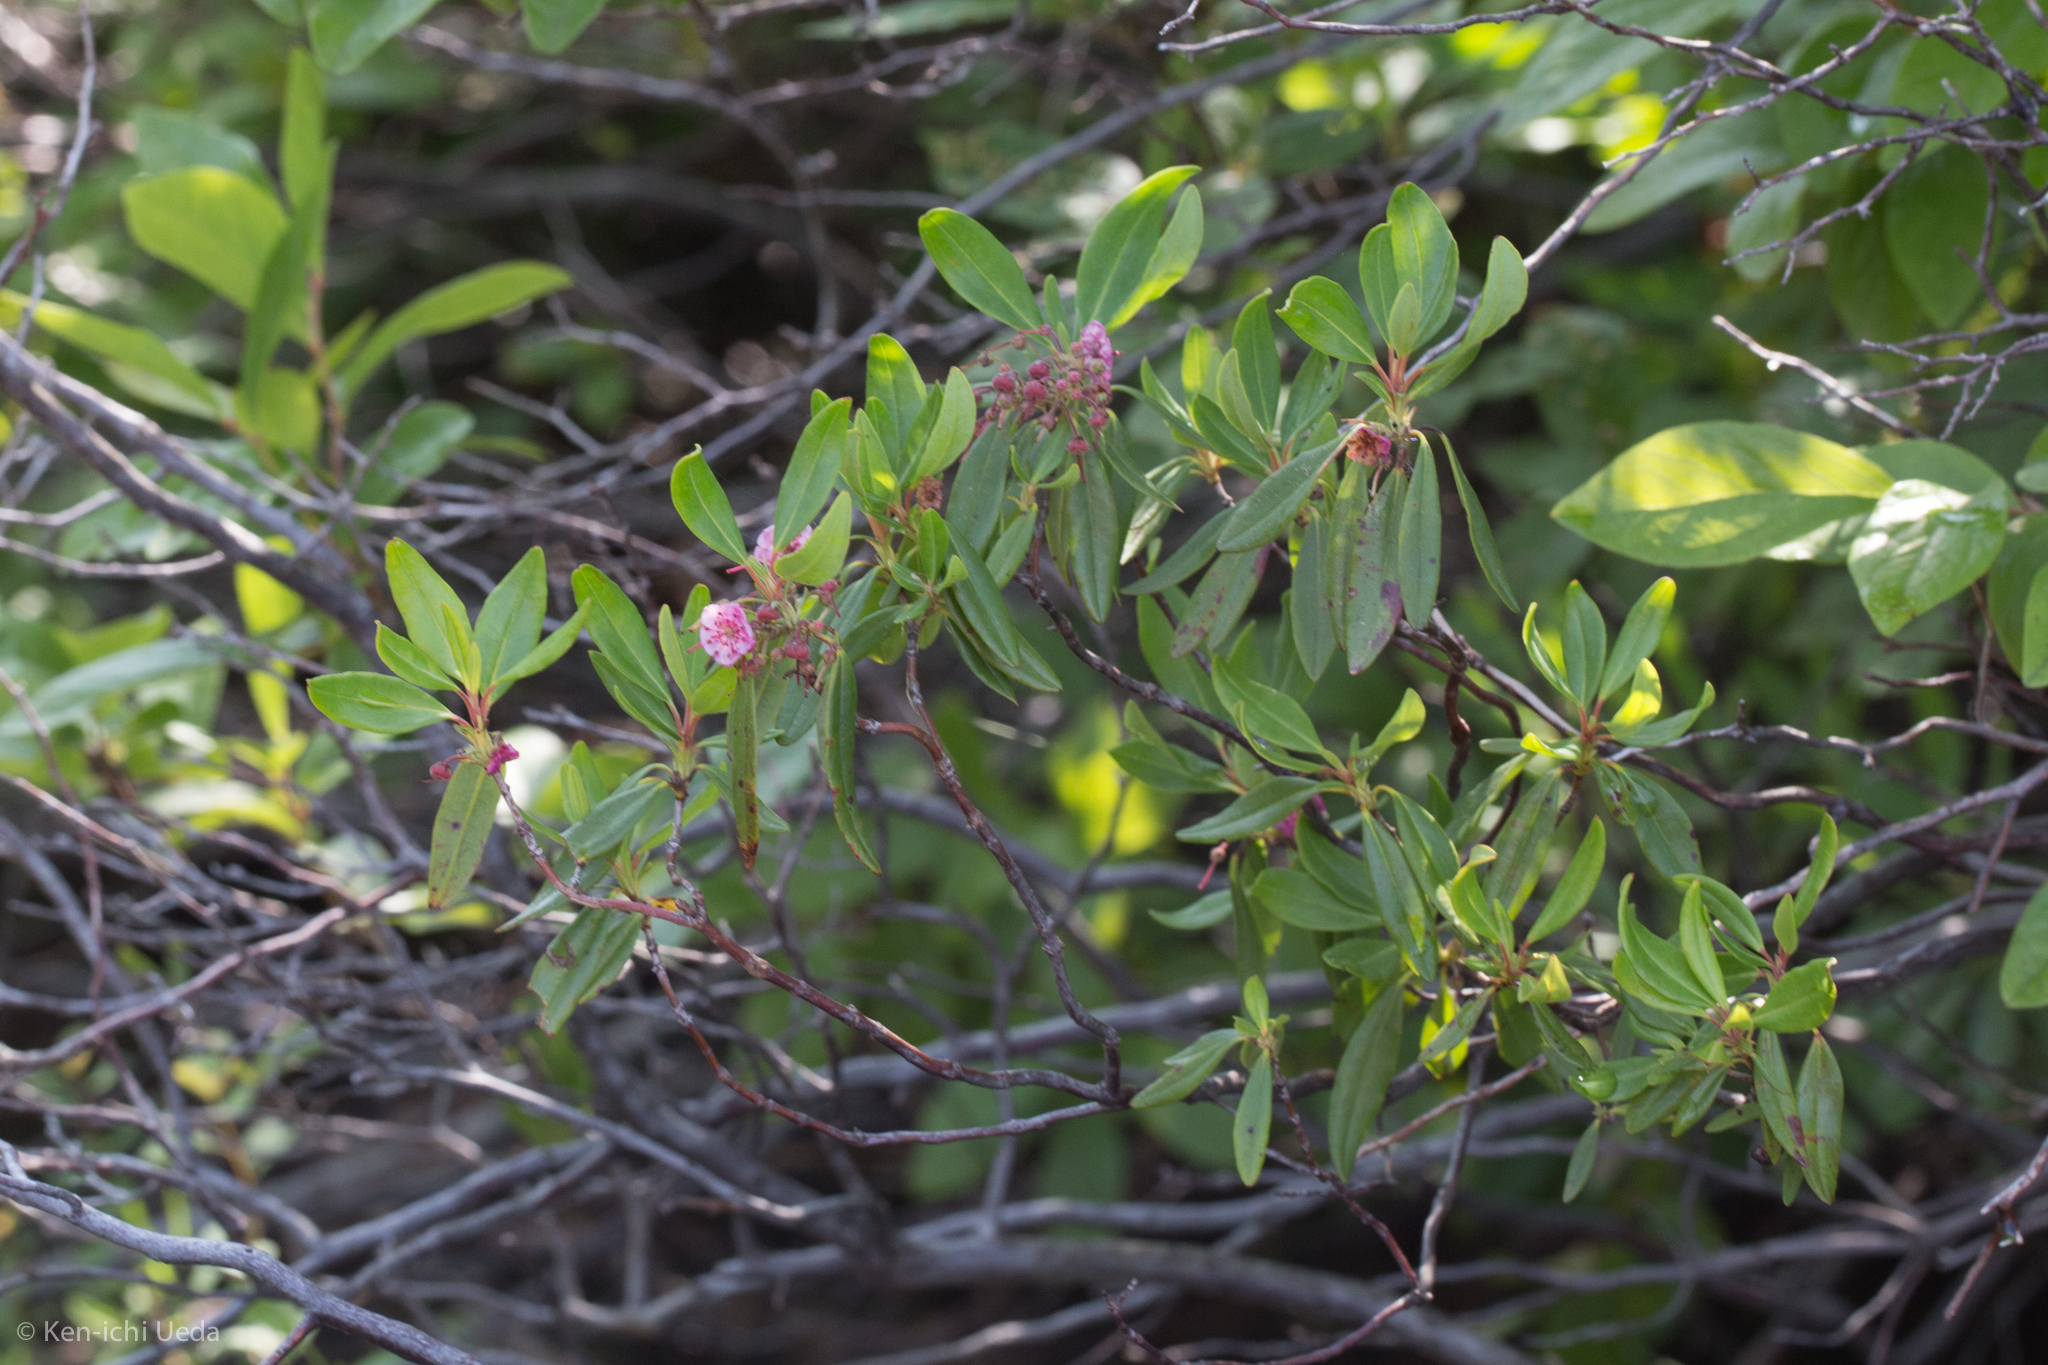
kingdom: Plantae
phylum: Tracheophyta
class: Magnoliopsida
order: Ericales
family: Ericaceae
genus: Kalmia
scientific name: Kalmia angustifolia
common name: Sheep-laurel
